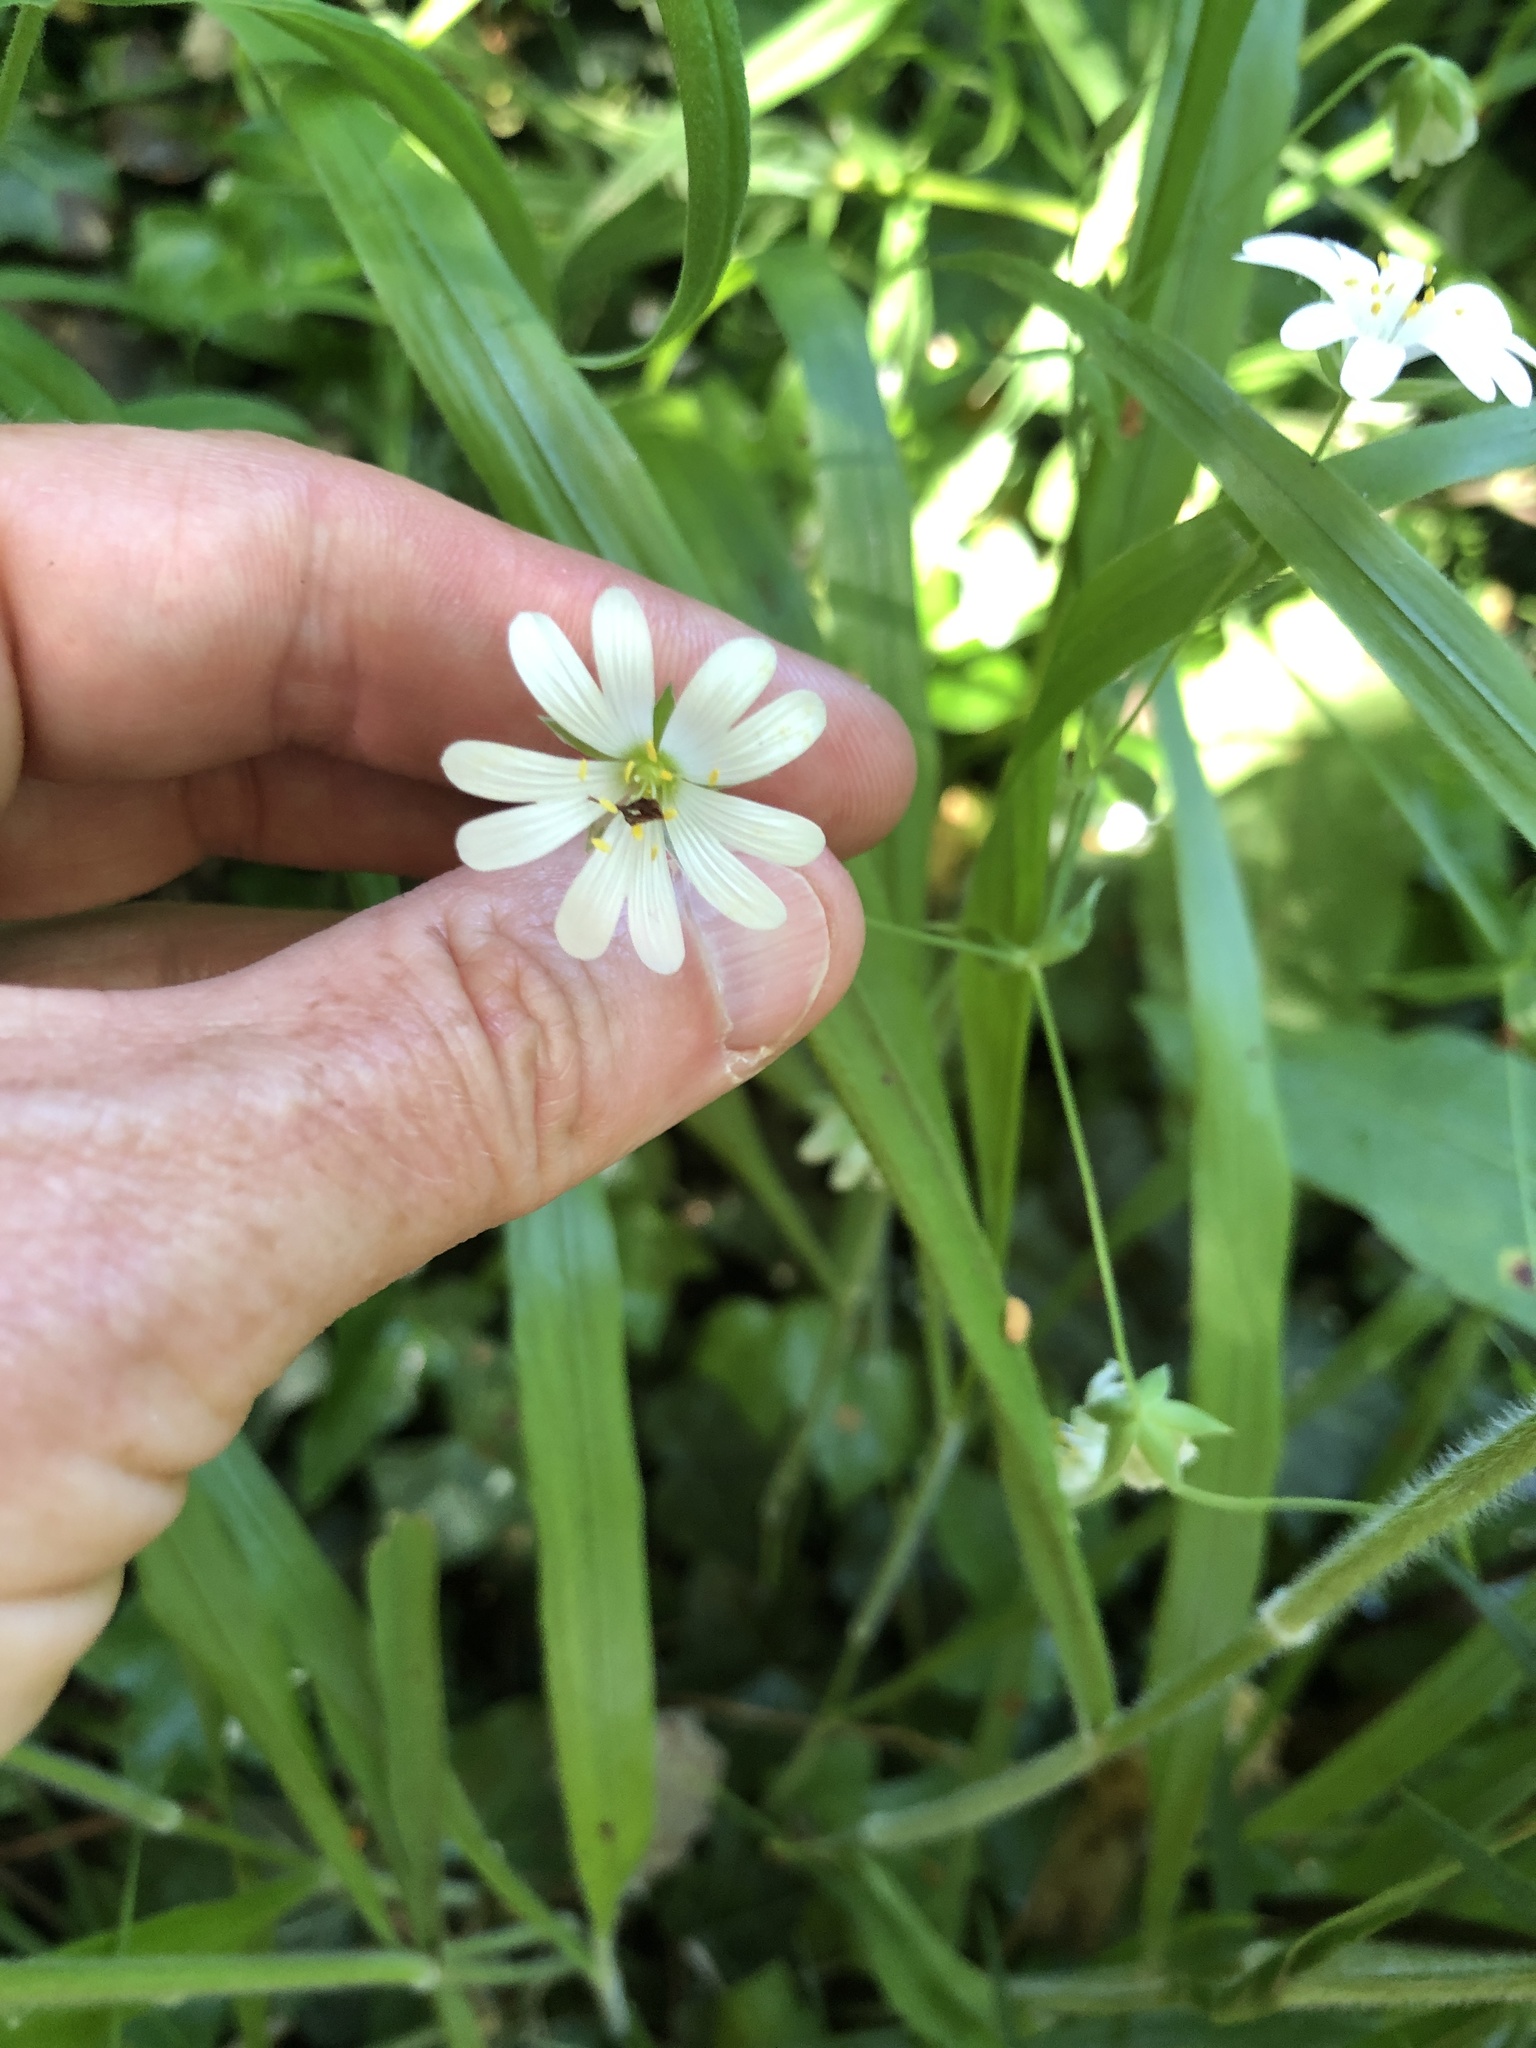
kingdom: Plantae
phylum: Tracheophyta
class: Magnoliopsida
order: Caryophyllales
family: Caryophyllaceae
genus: Rabelera
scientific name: Rabelera holostea
